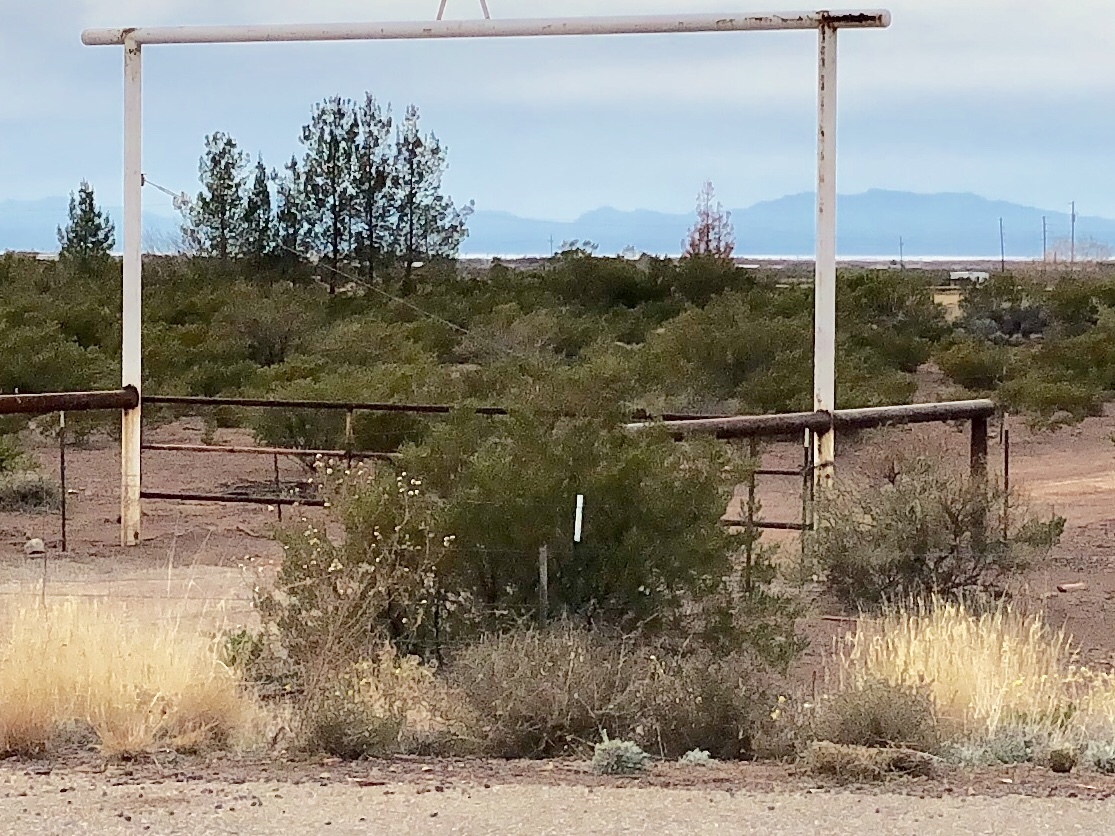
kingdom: Plantae
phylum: Tracheophyta
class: Magnoliopsida
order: Zygophyllales
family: Zygophyllaceae
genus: Larrea
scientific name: Larrea tridentata
